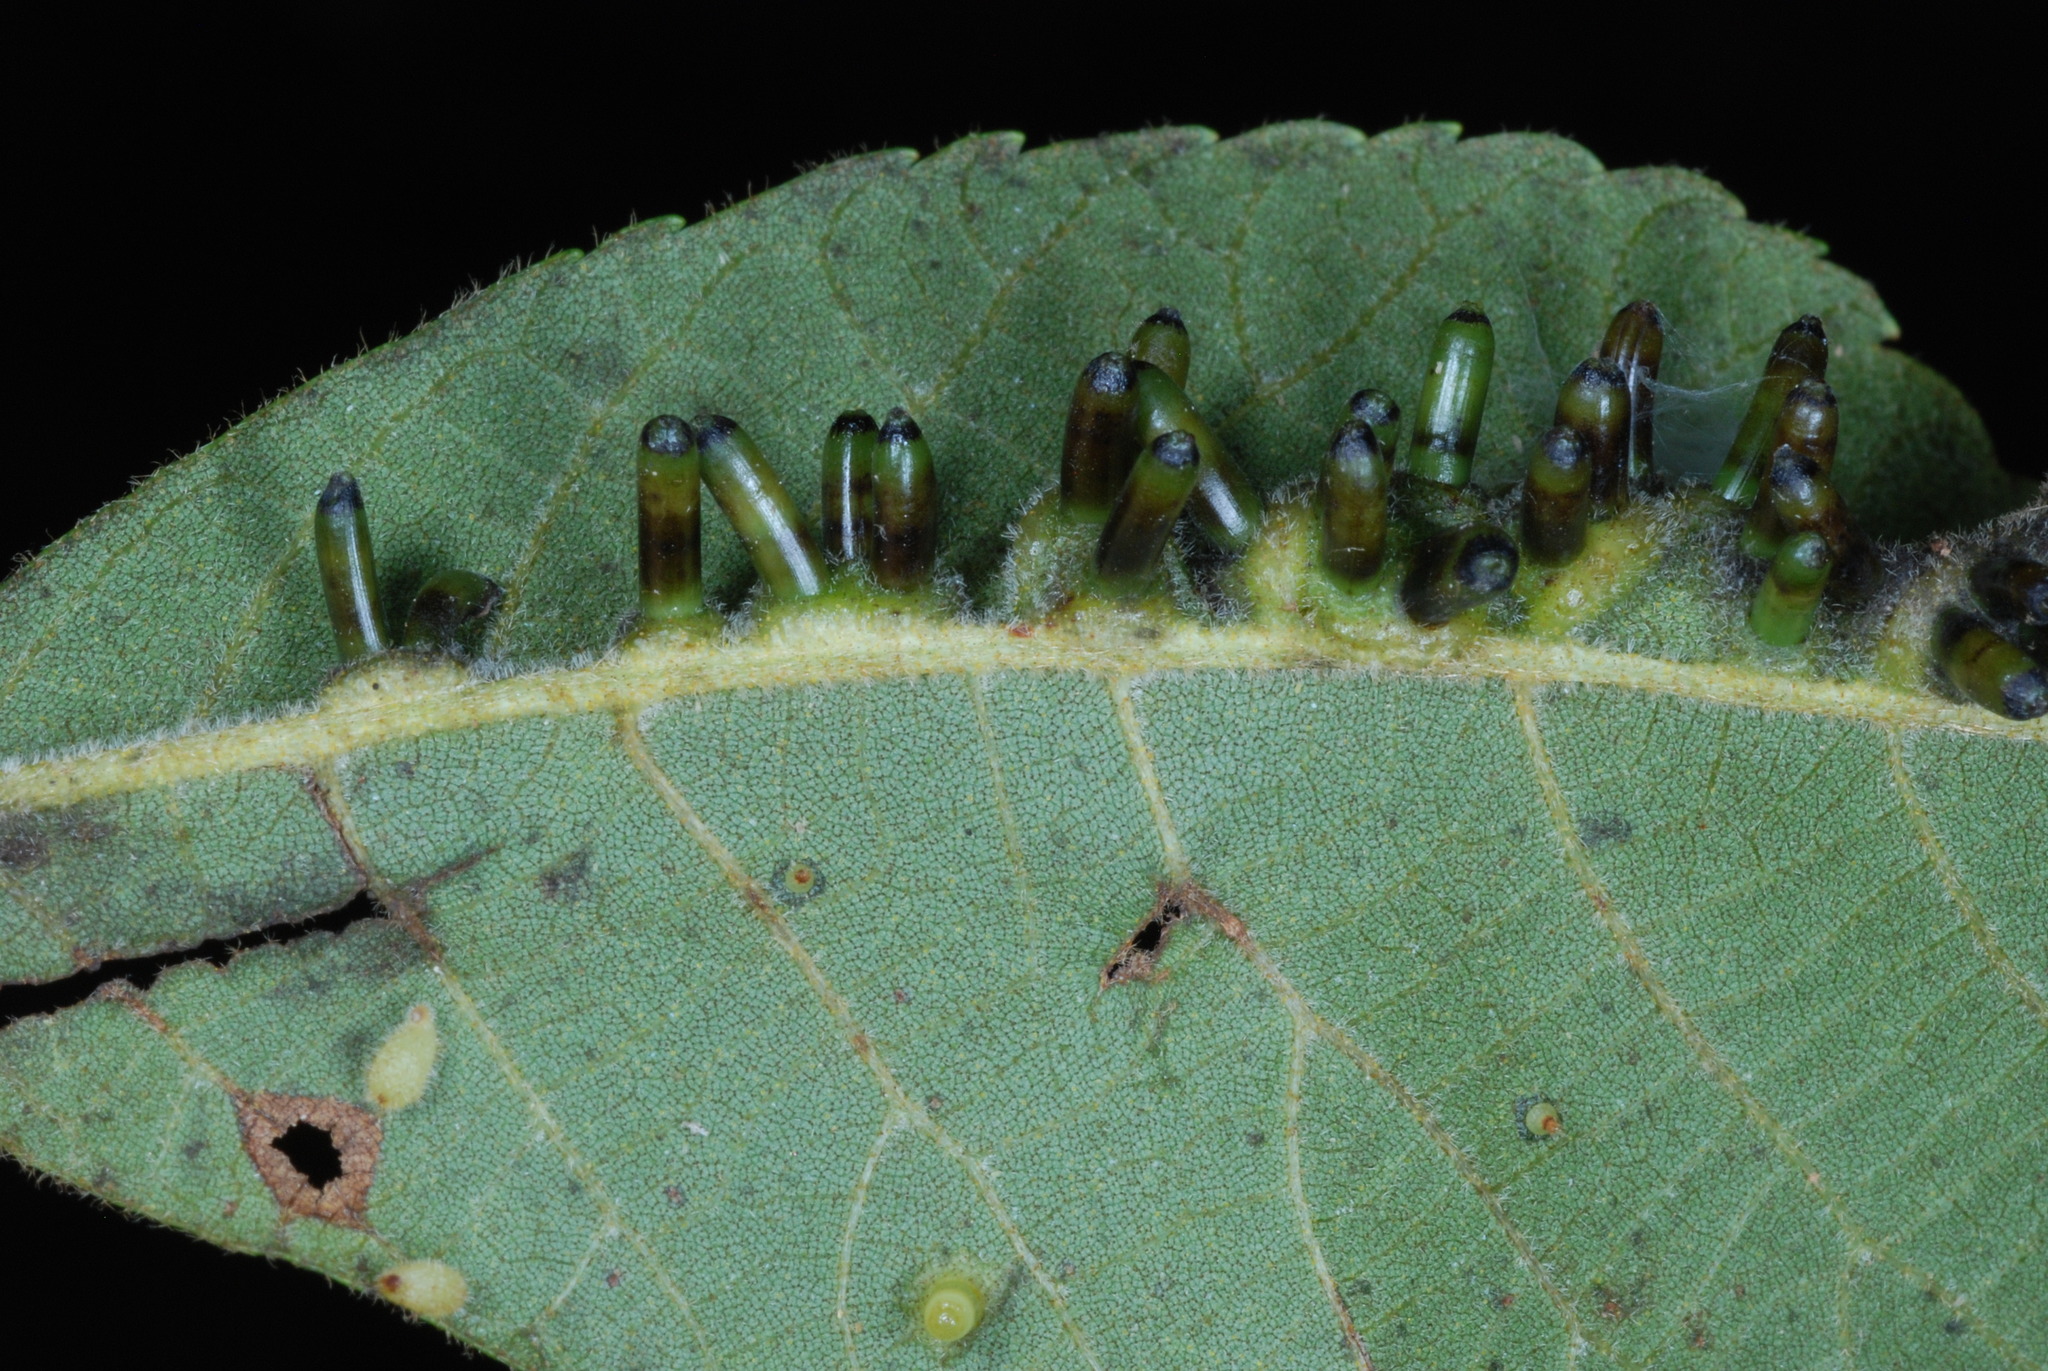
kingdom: Animalia
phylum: Arthropoda
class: Insecta
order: Diptera
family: Cecidomyiidae
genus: Caryomyia
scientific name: Caryomyia tubicola
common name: Hickory bullet gall midge
